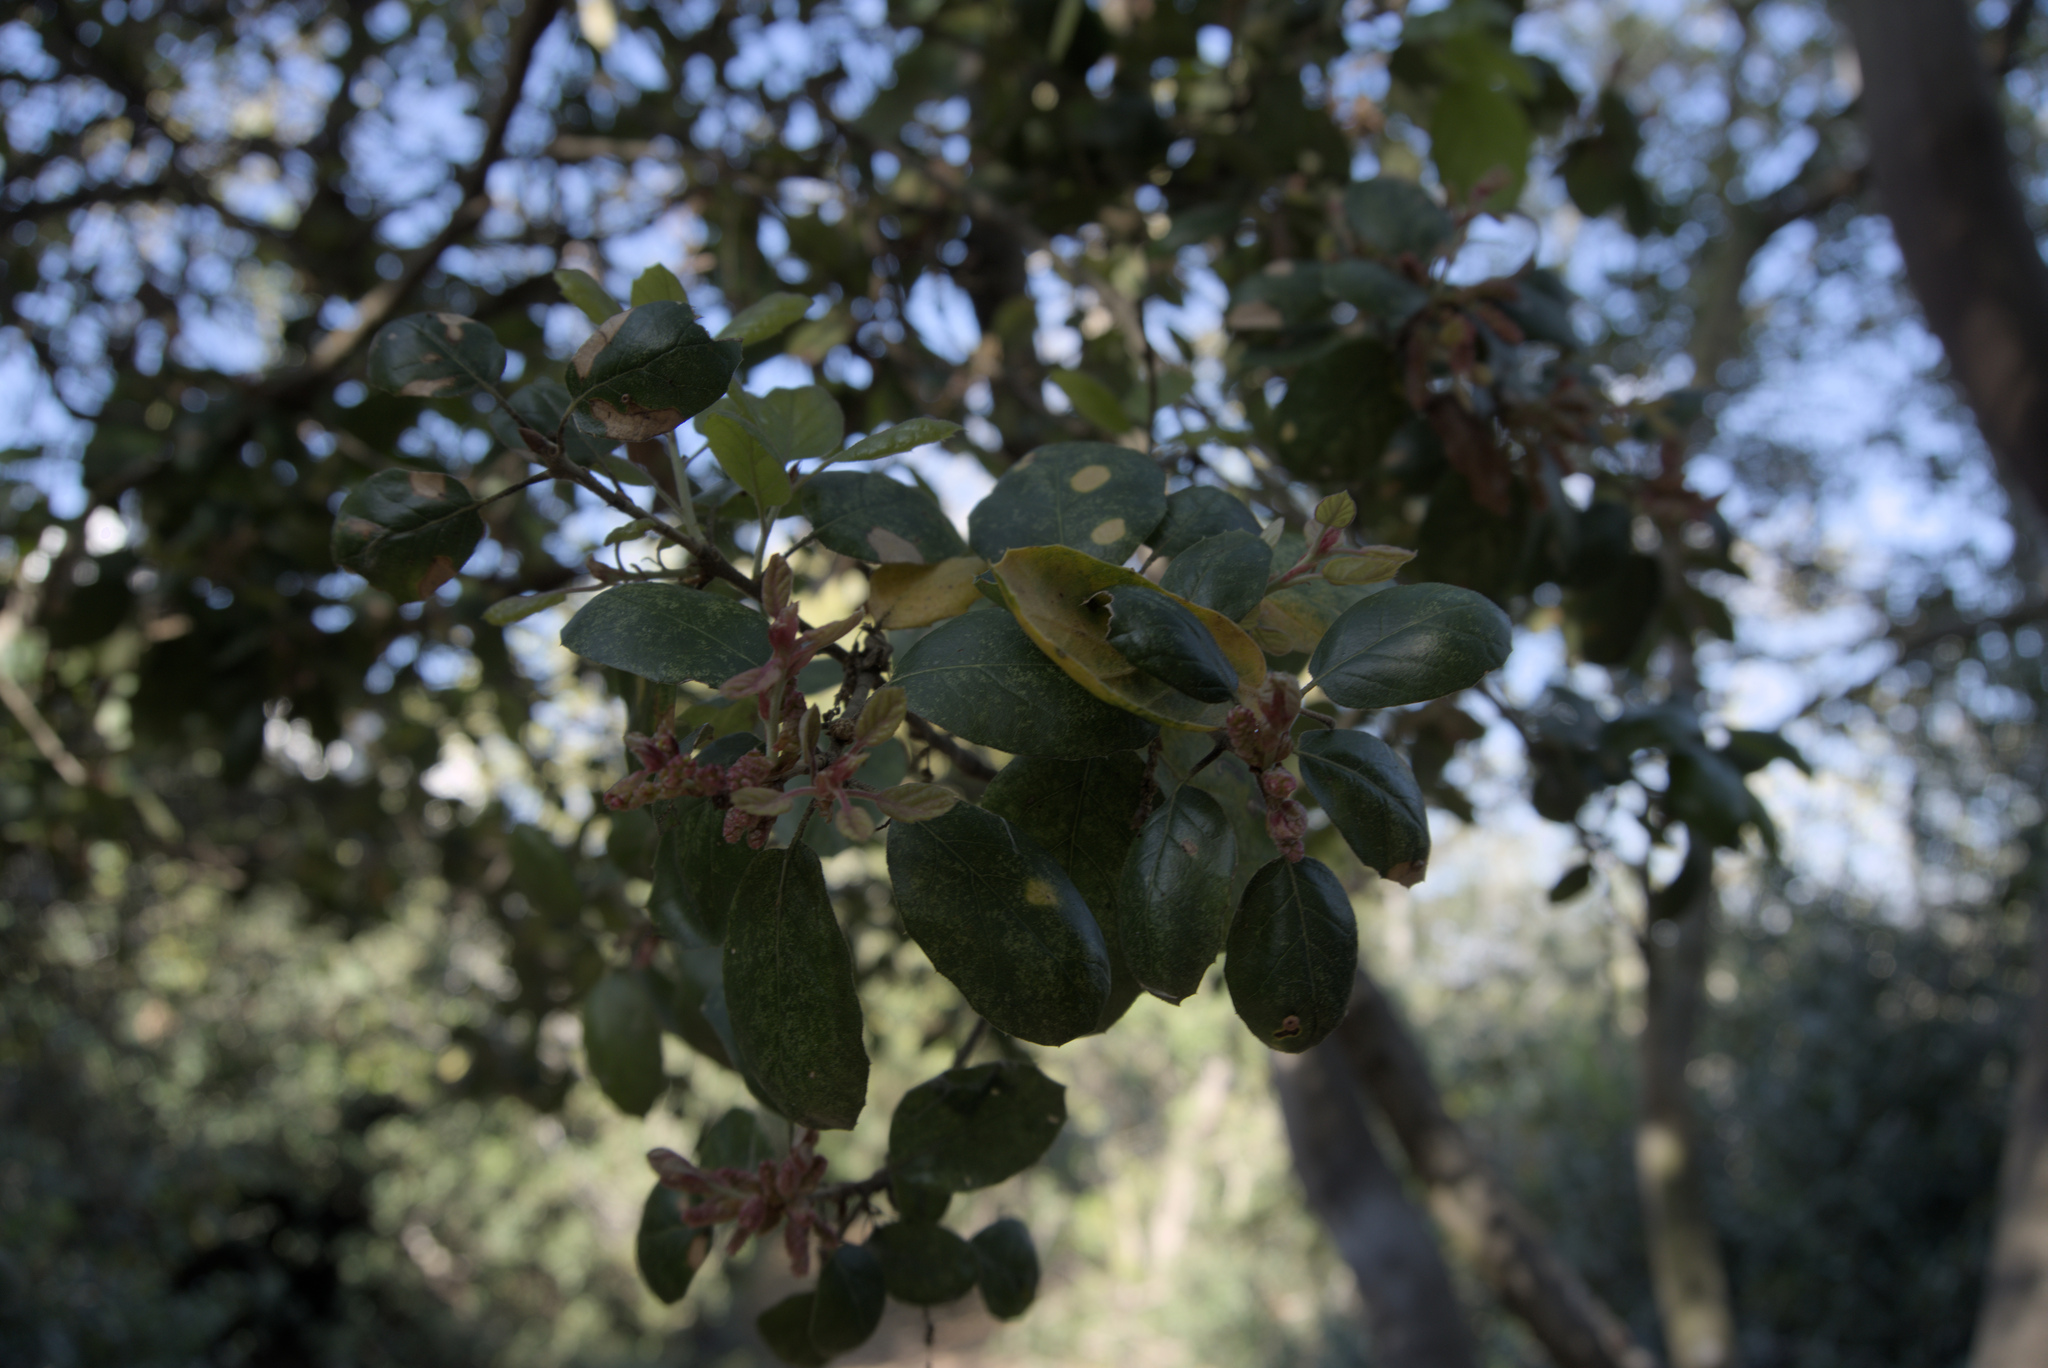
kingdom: Plantae
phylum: Tracheophyta
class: Magnoliopsida
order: Fagales
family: Fagaceae
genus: Quercus
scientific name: Quercus agrifolia
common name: California live oak
